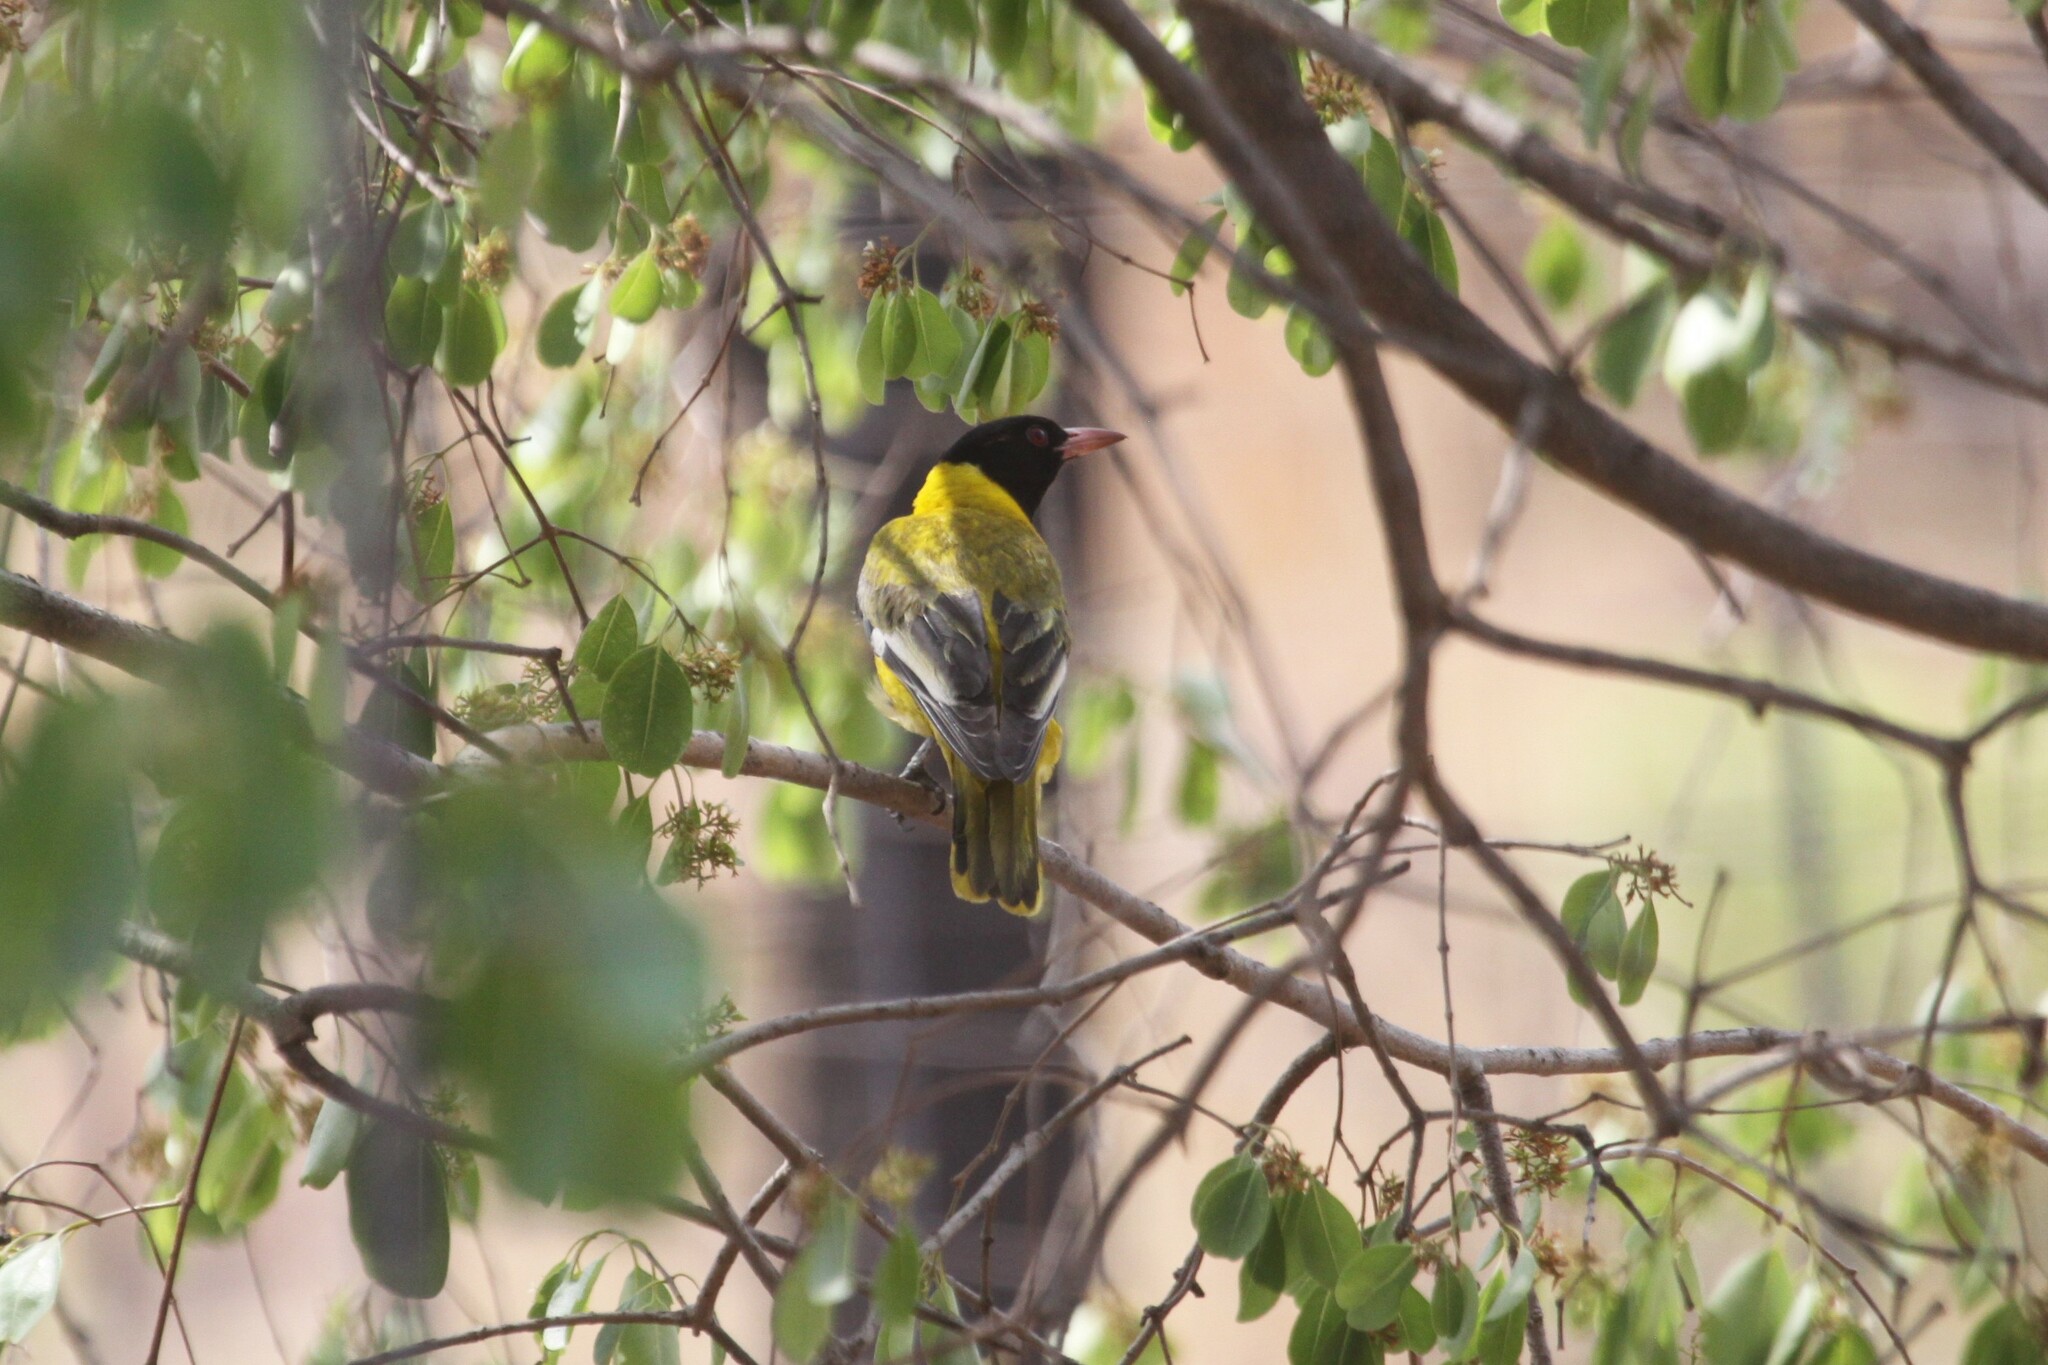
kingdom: Animalia
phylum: Chordata
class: Aves
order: Passeriformes
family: Oriolidae
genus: Oriolus
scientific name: Oriolus larvatus
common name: Black-headed oriole
